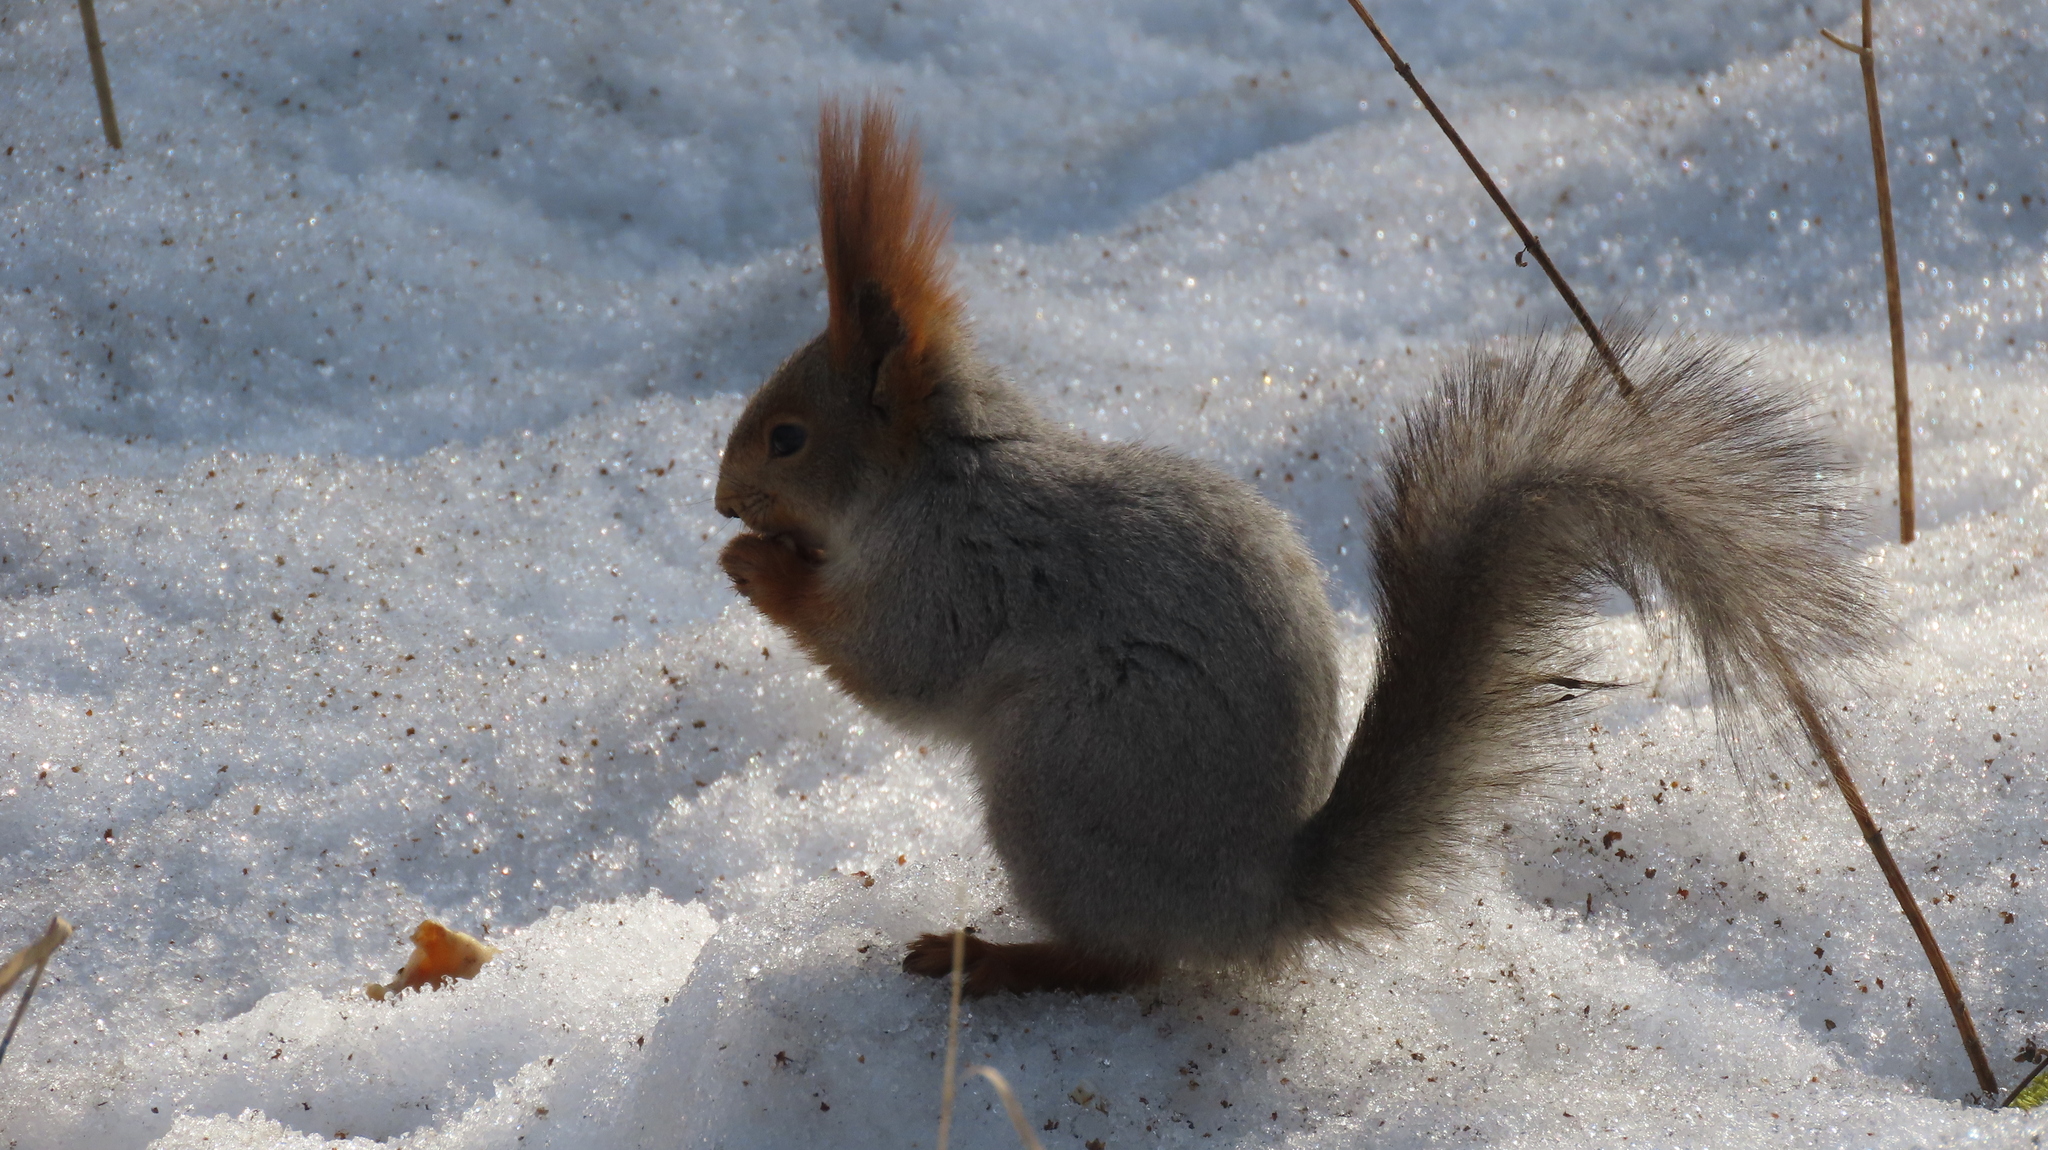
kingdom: Animalia
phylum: Chordata
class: Mammalia
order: Rodentia
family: Sciuridae
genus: Sciurus
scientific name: Sciurus vulgaris
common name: Eurasian red squirrel
